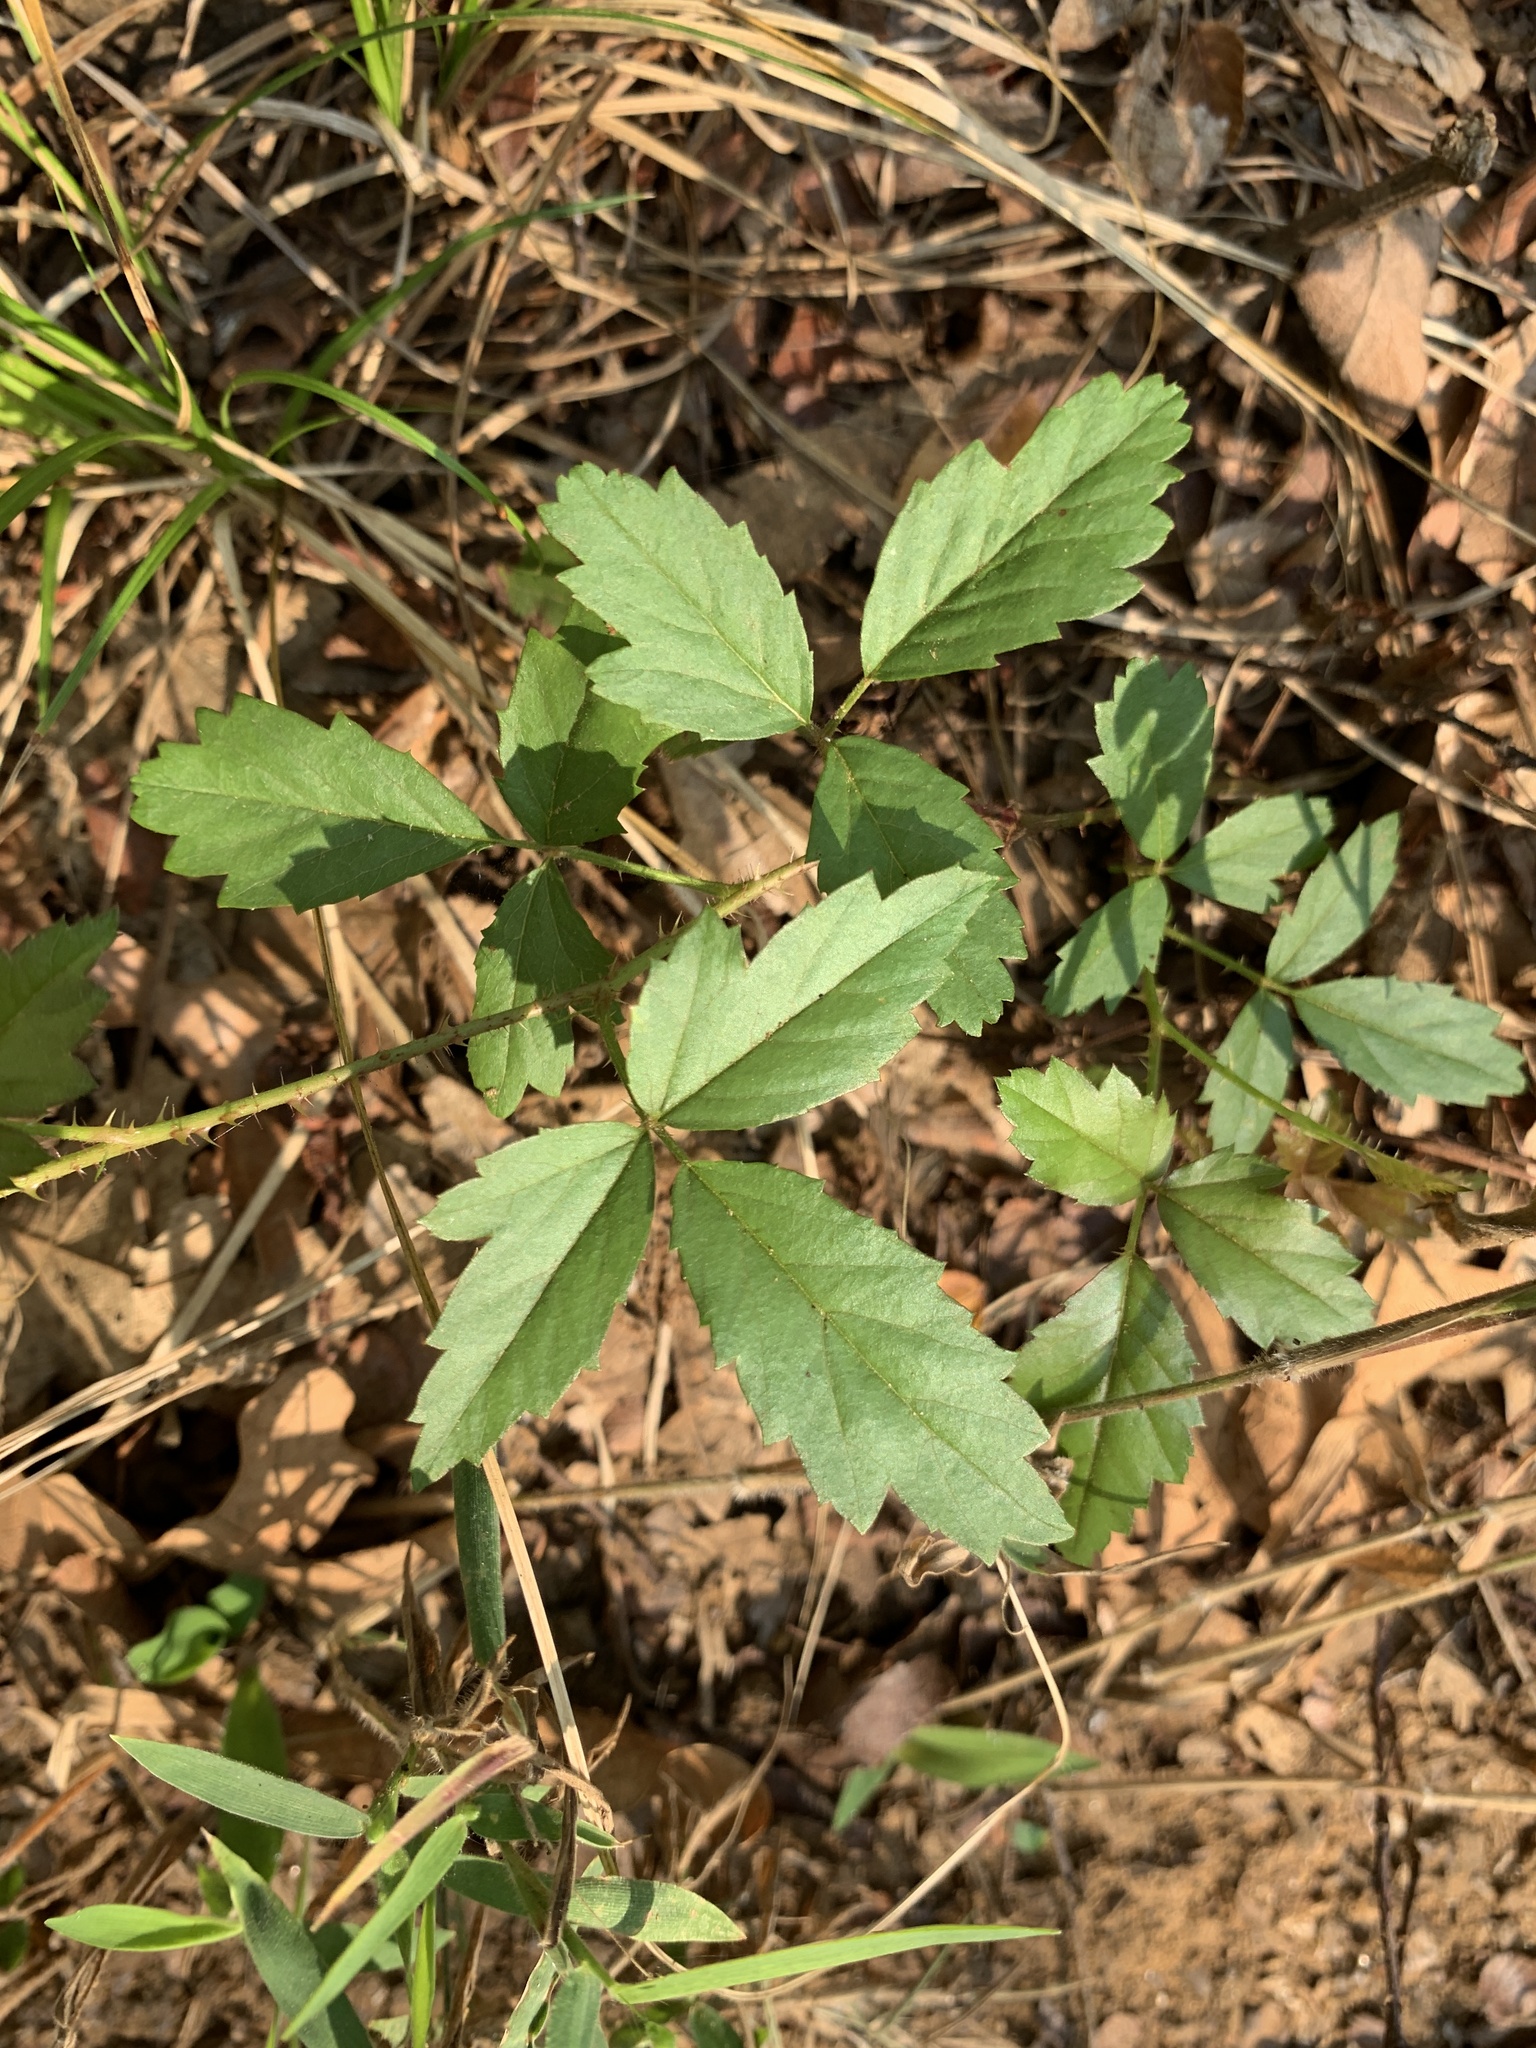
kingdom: Plantae
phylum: Tracheophyta
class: Magnoliopsida
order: Rosales
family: Rosaceae
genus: Rubus
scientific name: Rubus trivialis
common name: Southern dewberry
